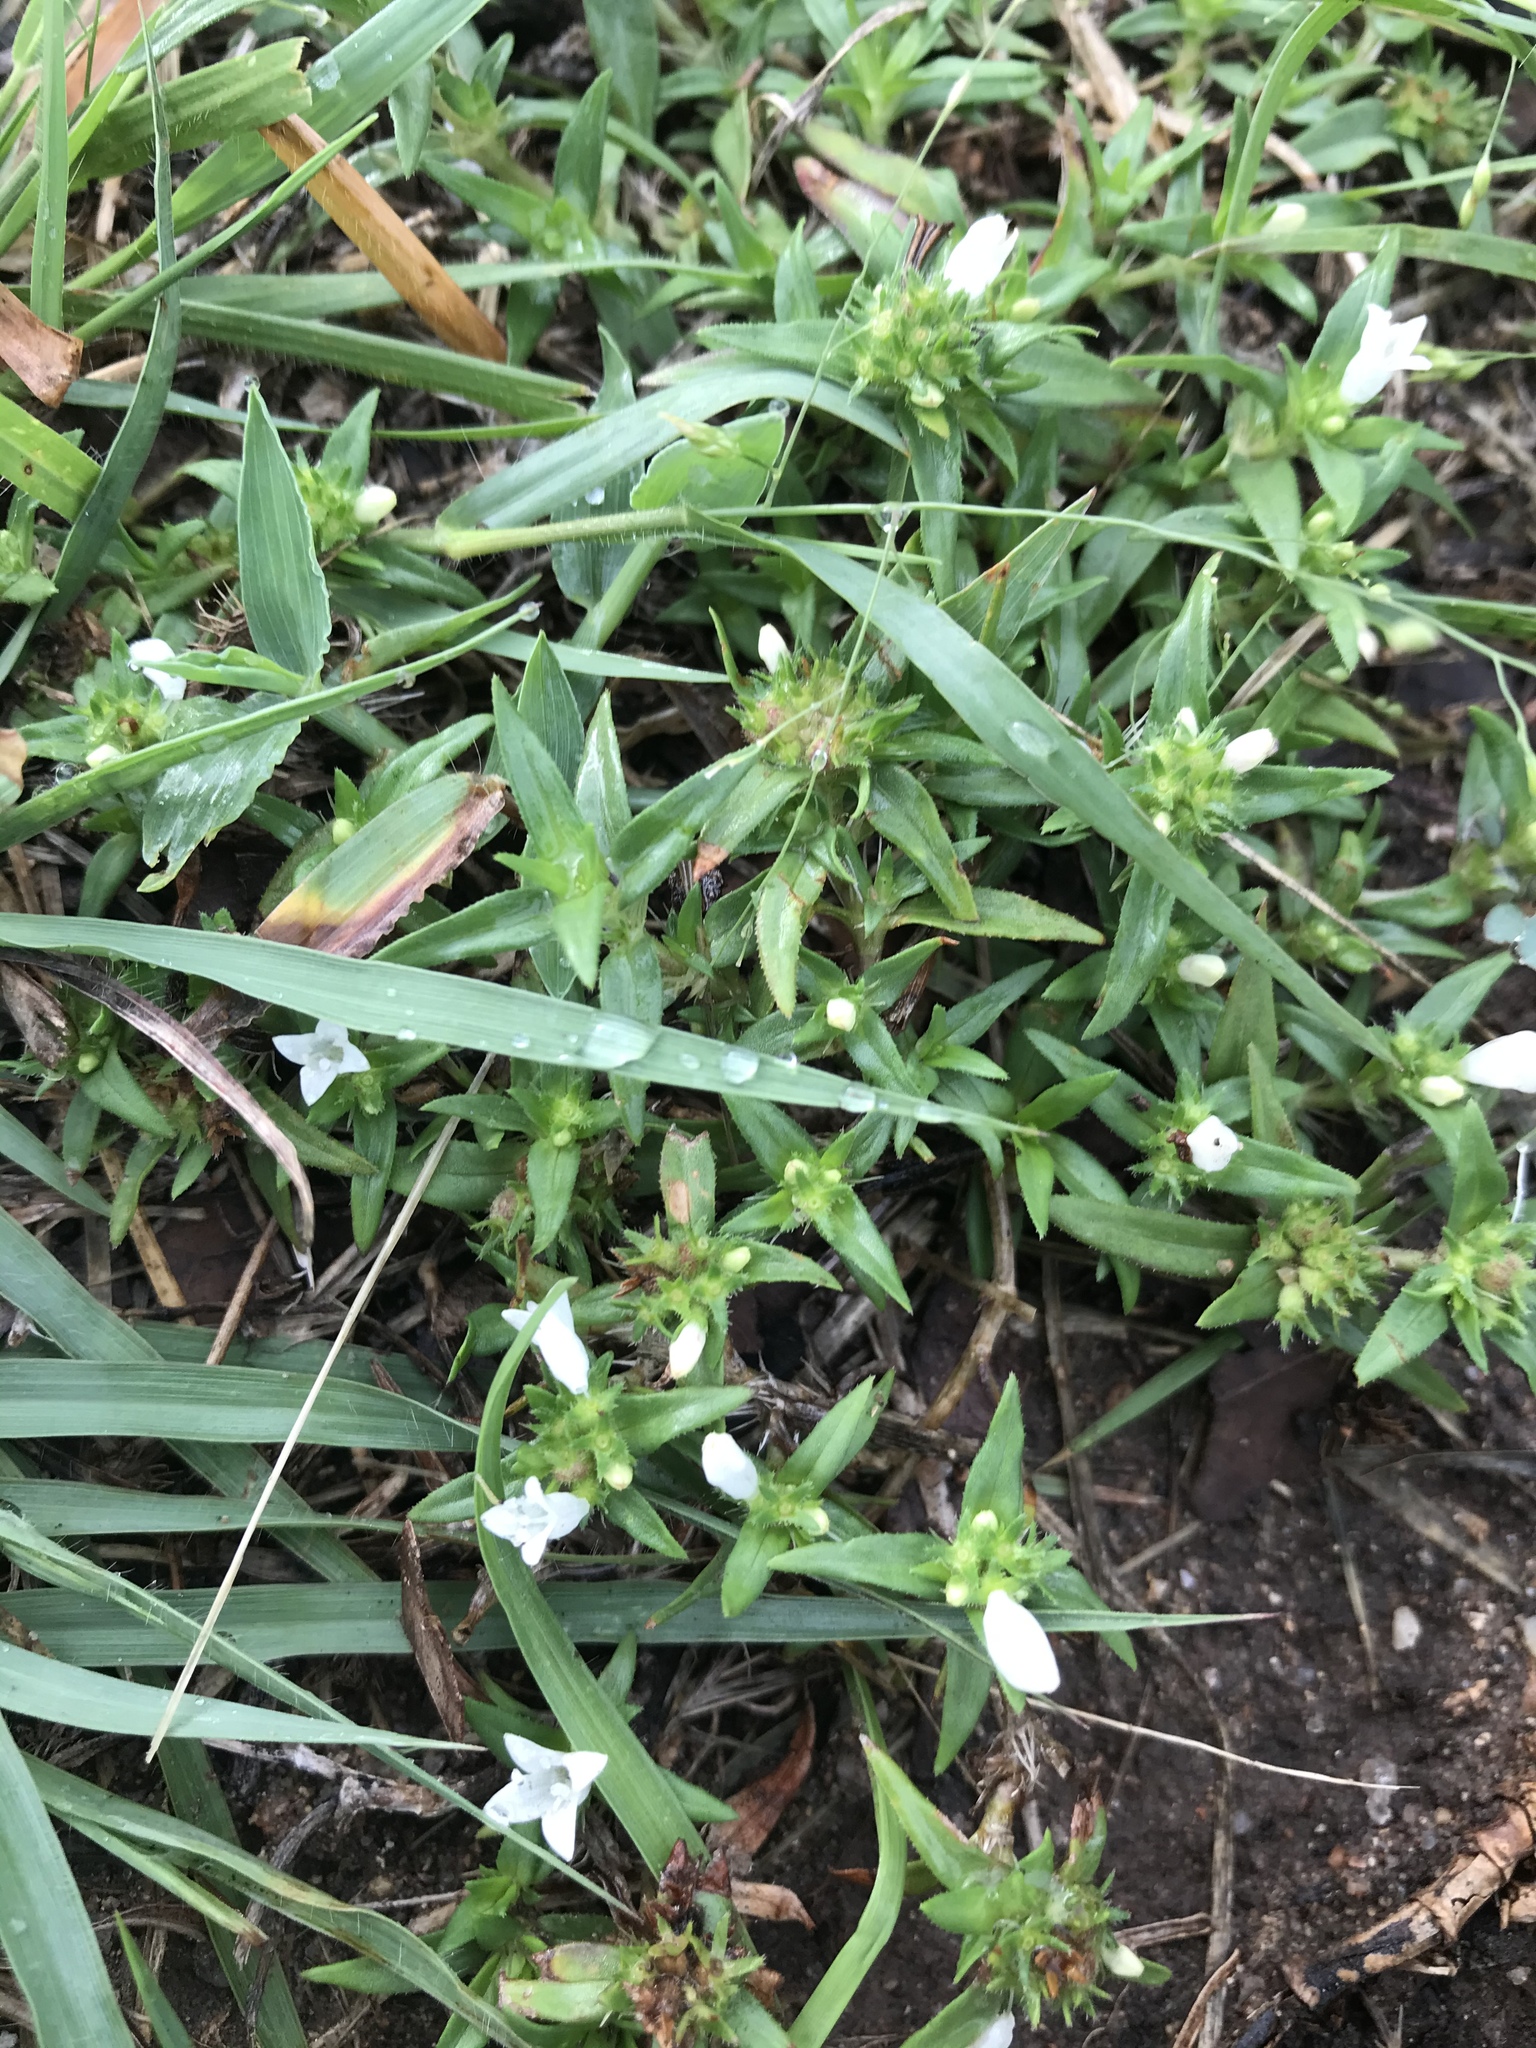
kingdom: Plantae
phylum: Tracheophyta
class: Magnoliopsida
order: Gentianales
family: Rubiaceae
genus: Richardia
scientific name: Richardia tricocca
